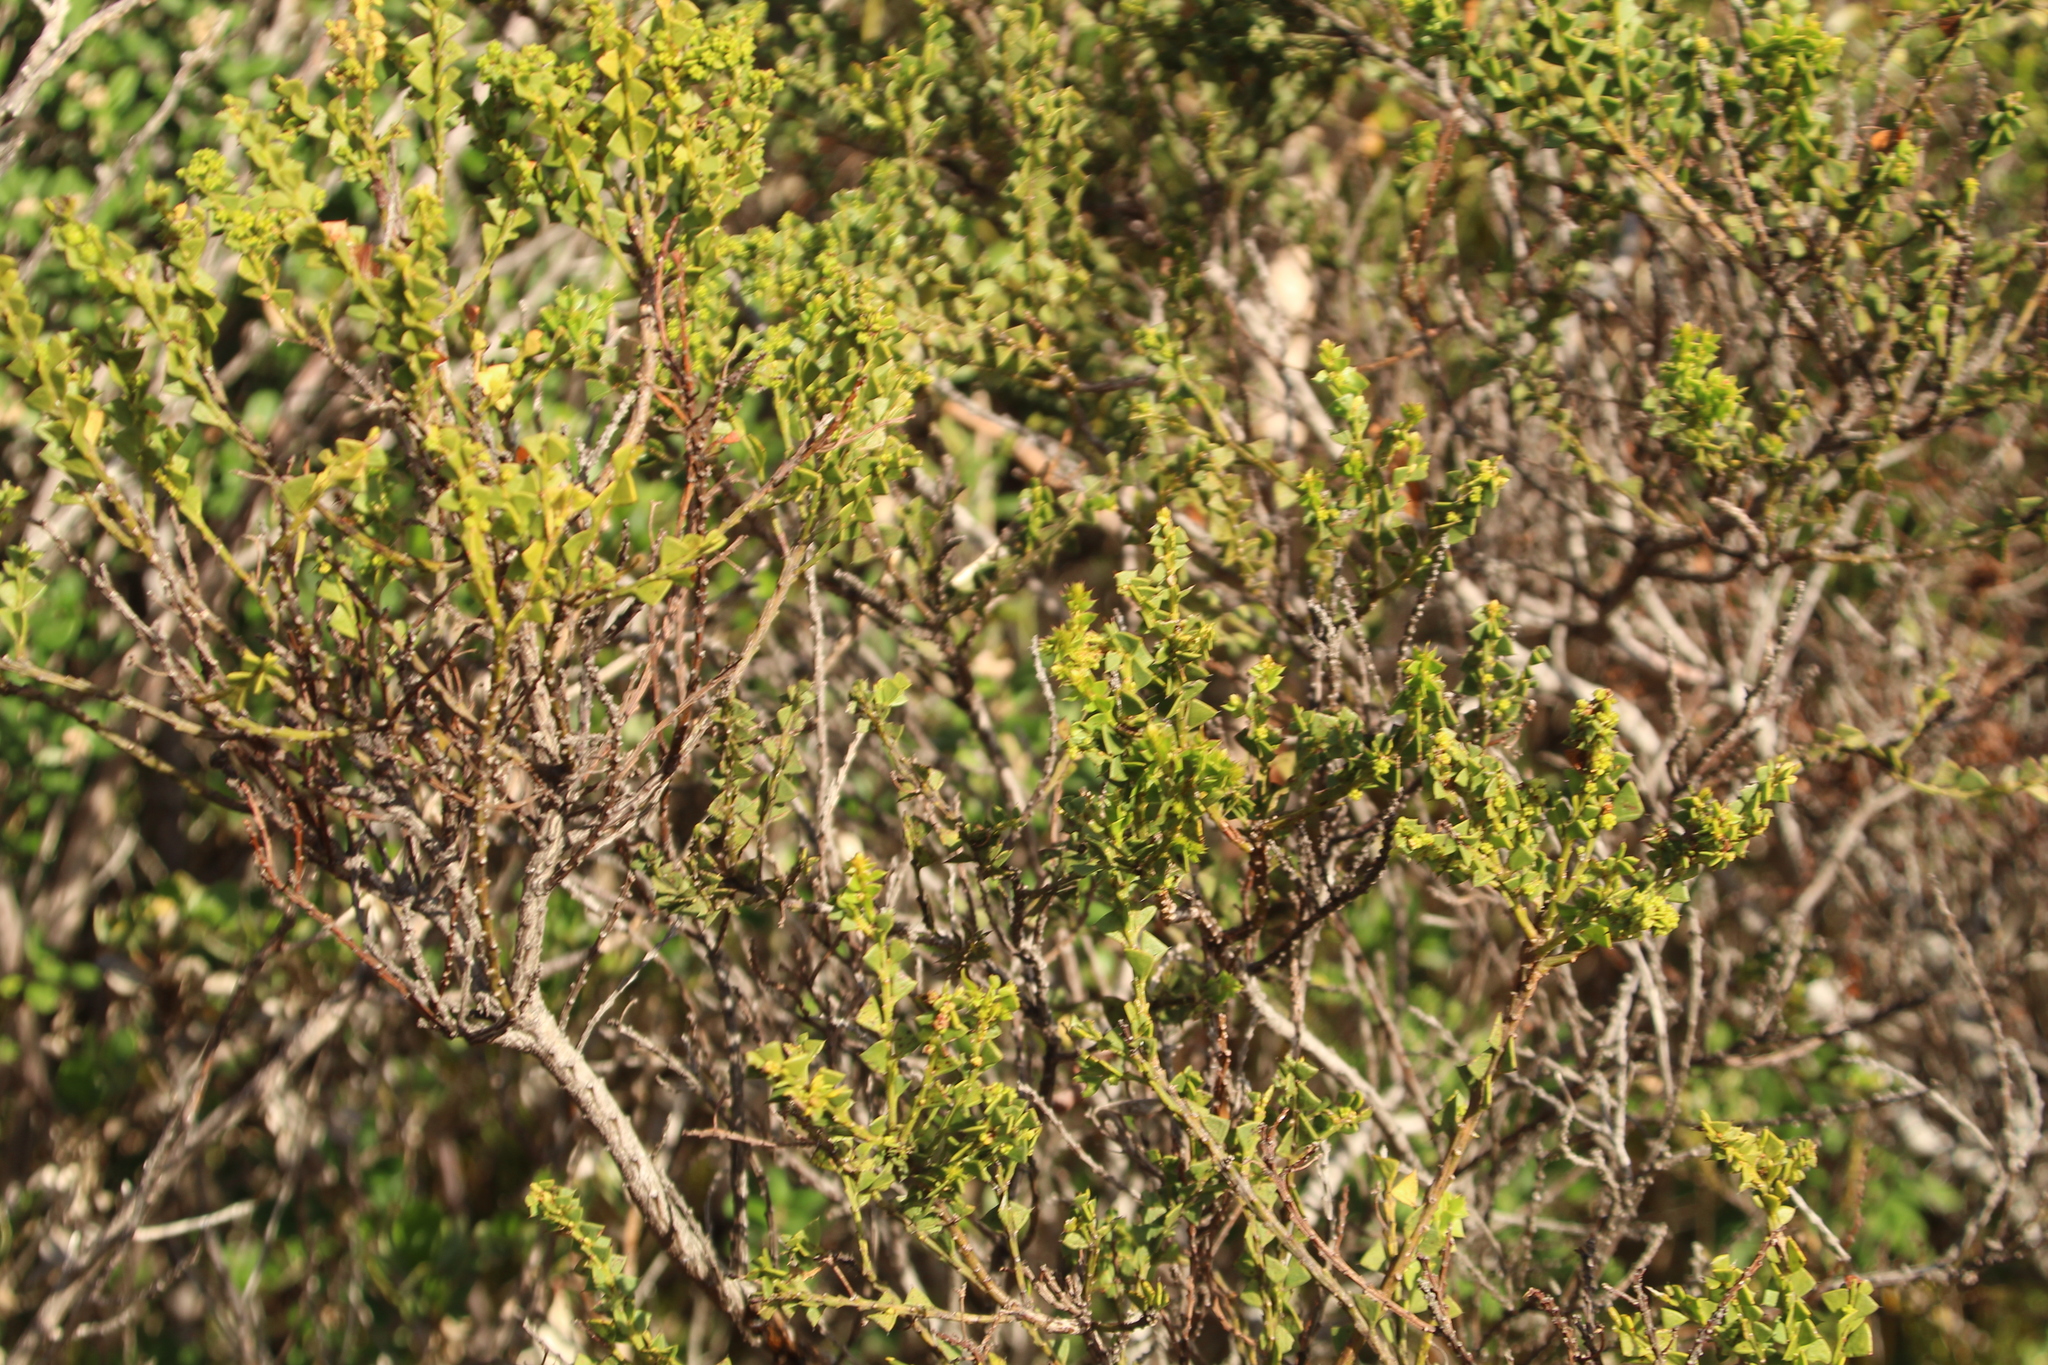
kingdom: Plantae
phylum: Tracheophyta
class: Magnoliopsida
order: Fabales
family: Fabaceae
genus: Acacia
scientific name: Acacia trapezoidea
